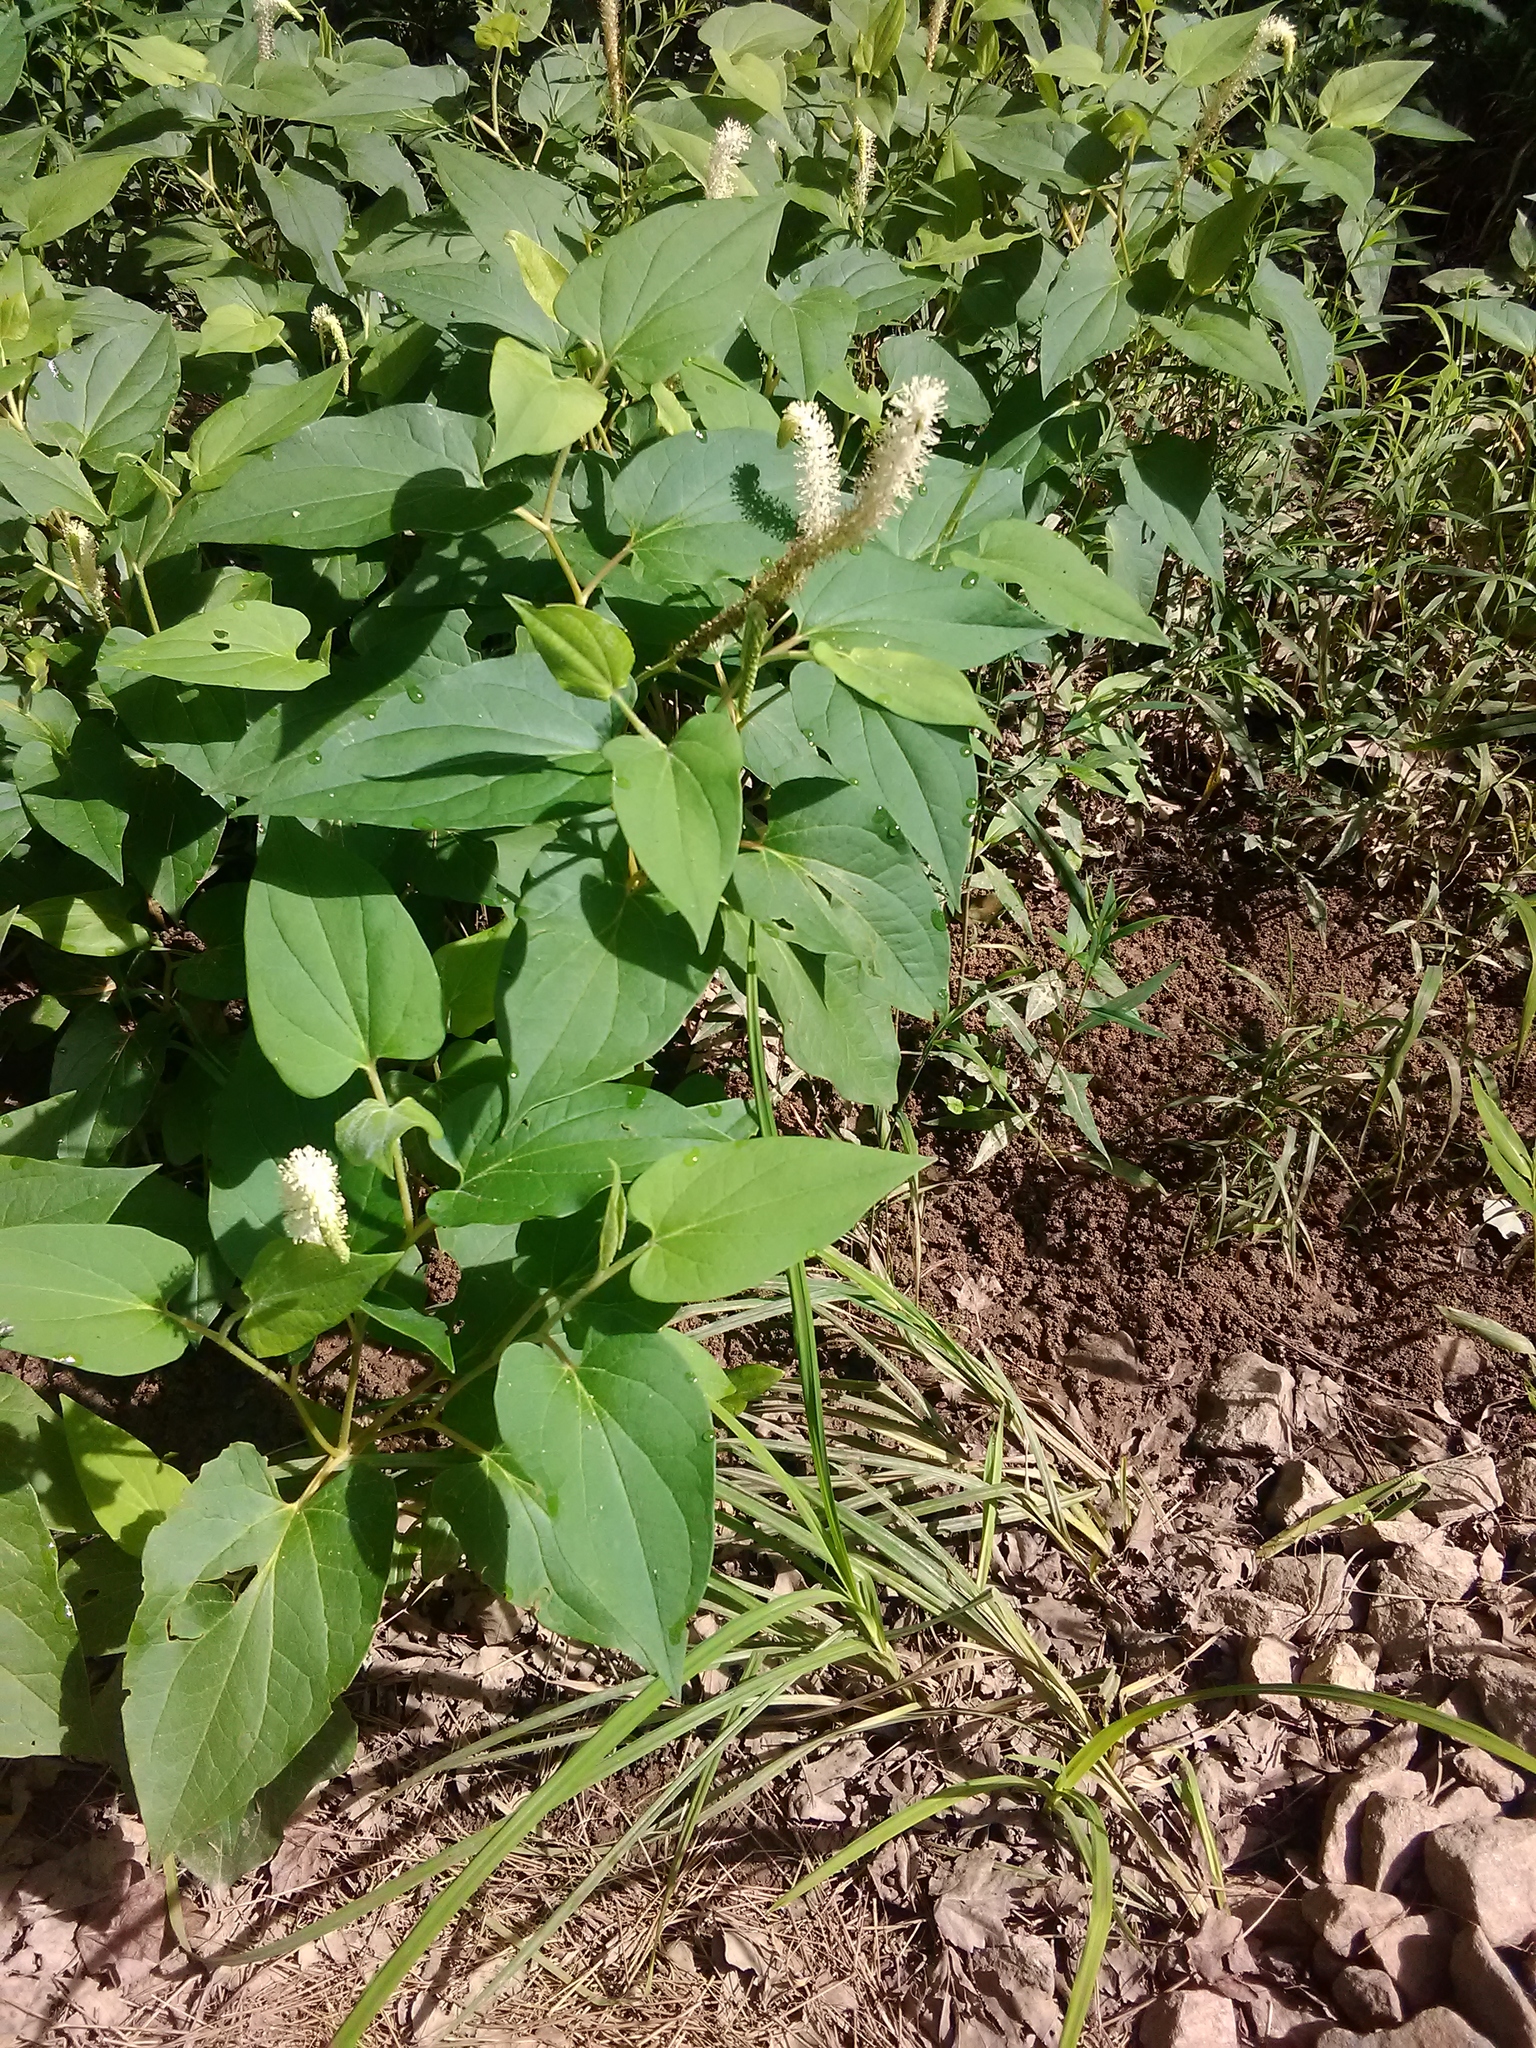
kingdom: Plantae
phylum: Tracheophyta
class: Magnoliopsida
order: Piperales
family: Saururaceae
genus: Saururus
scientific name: Saururus cernuus
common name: Lizard's-tail
